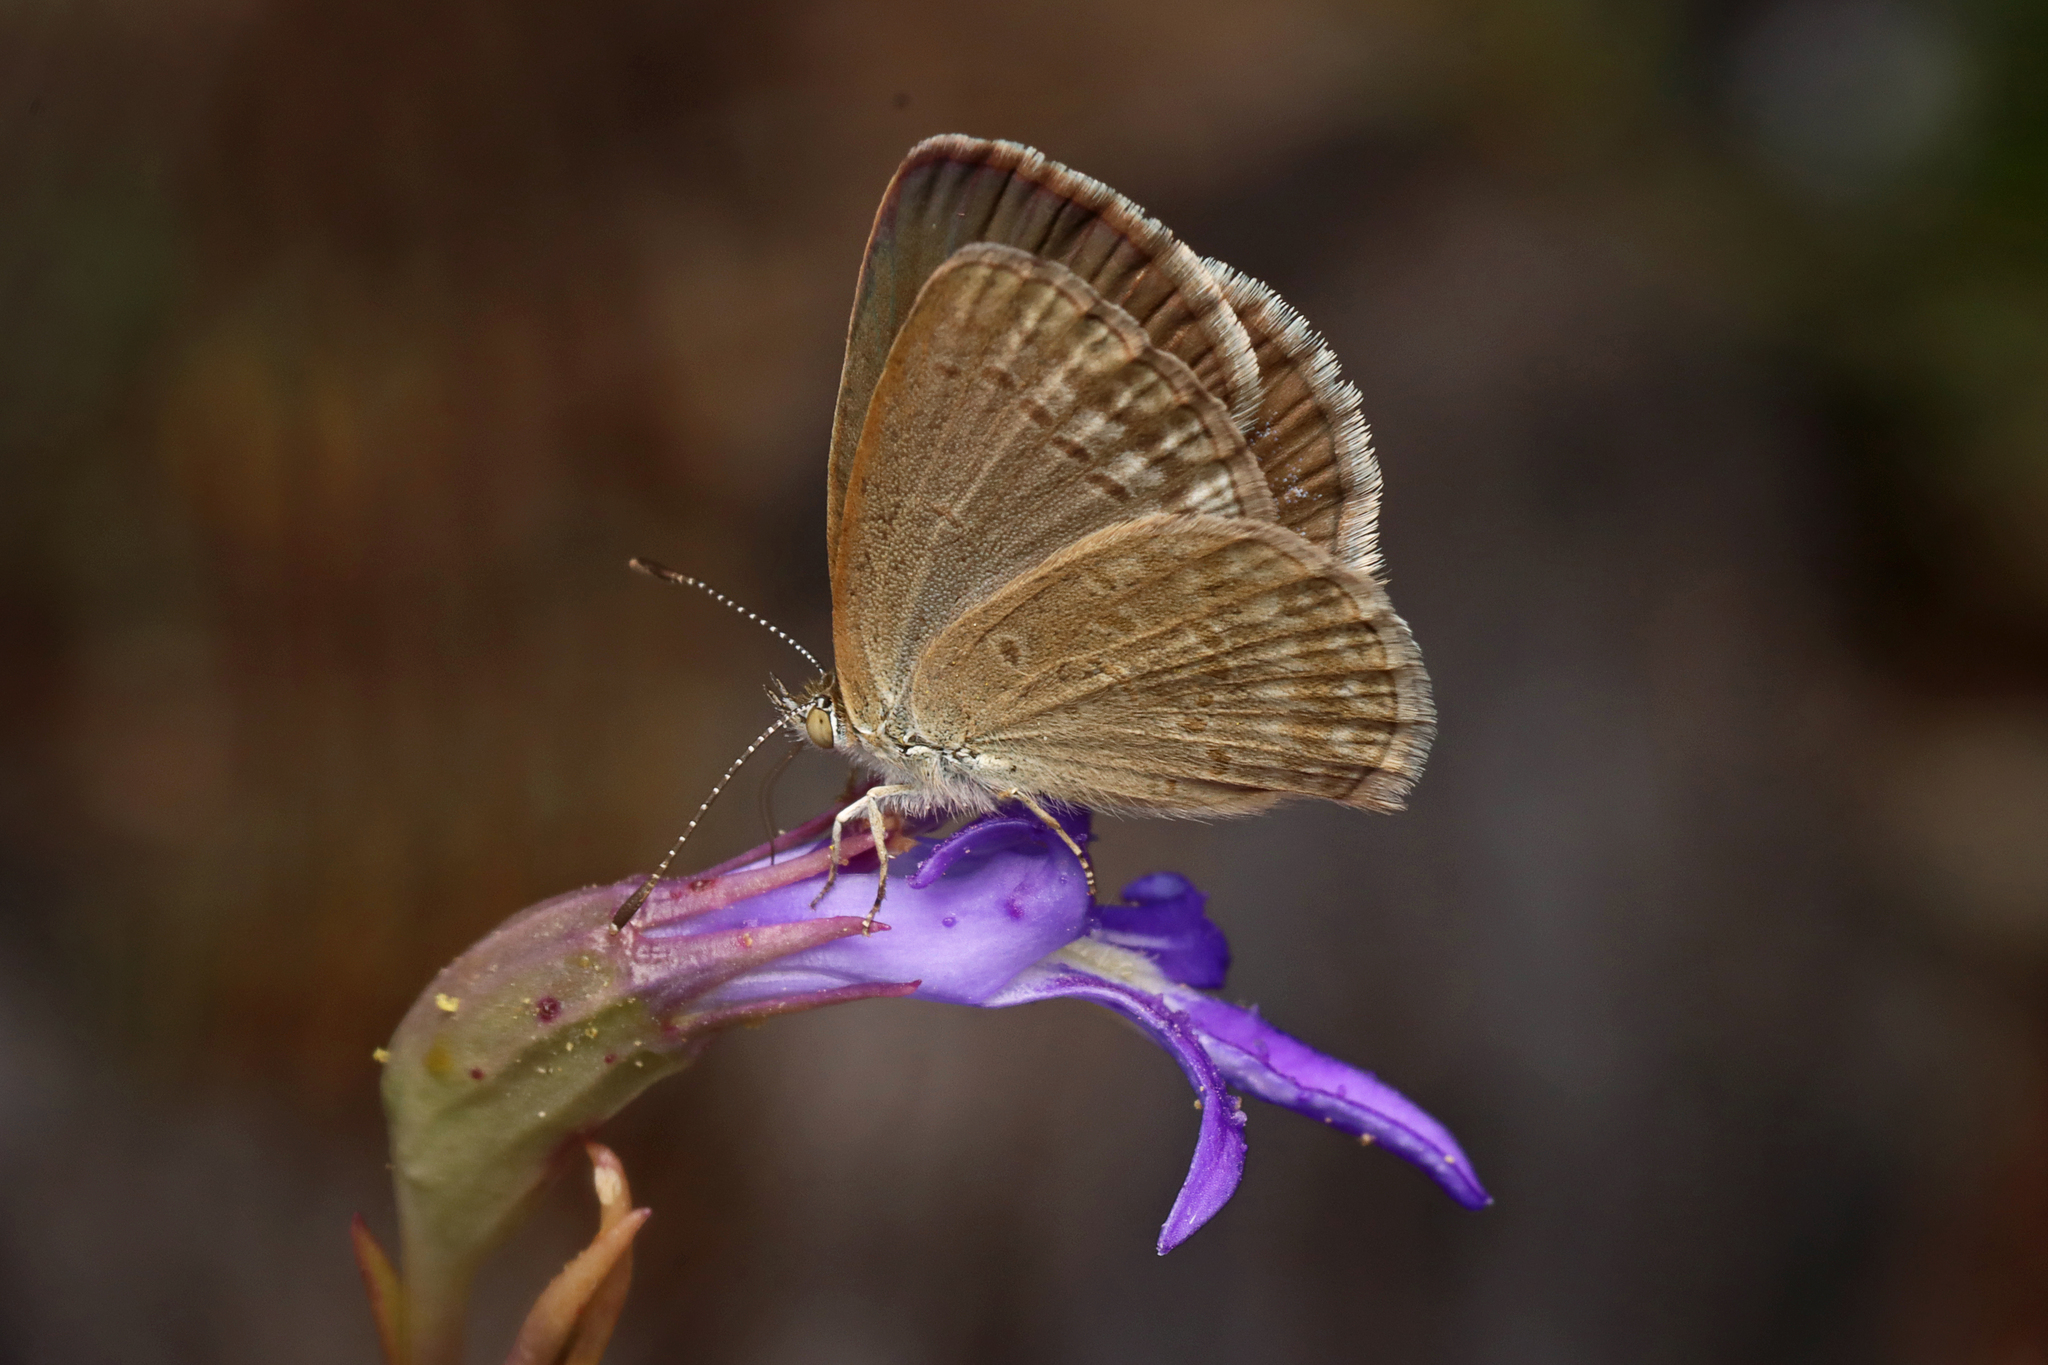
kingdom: Animalia
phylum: Arthropoda
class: Insecta
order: Lepidoptera
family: Lycaenidae
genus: Zizina
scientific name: Zizina otis
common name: Lesser grass blue
